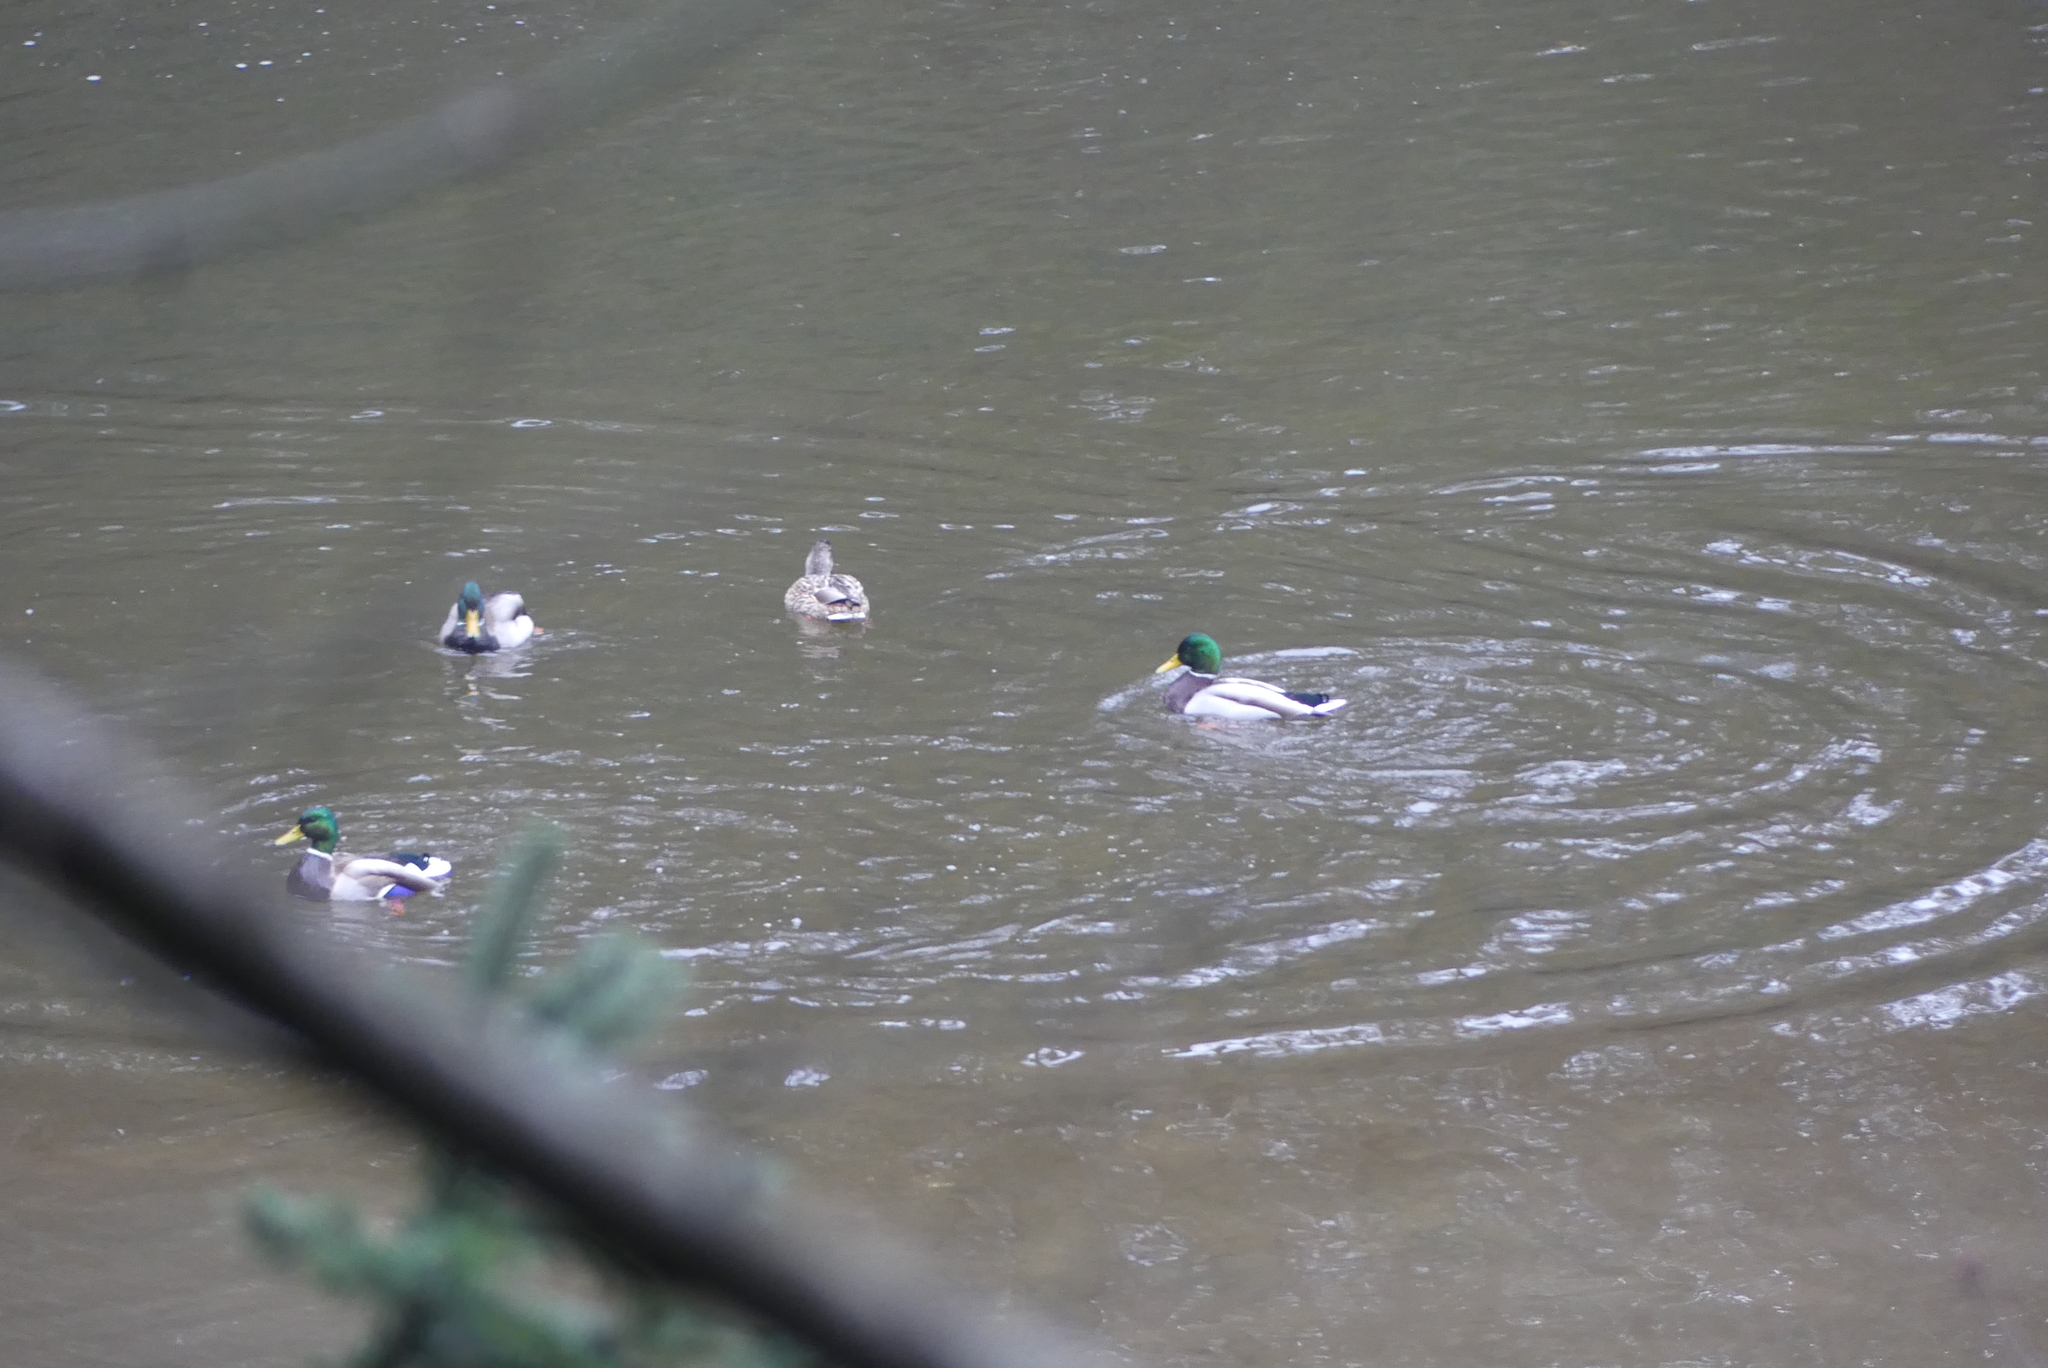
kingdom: Animalia
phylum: Chordata
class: Aves
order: Anseriformes
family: Anatidae
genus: Anas
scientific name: Anas platyrhynchos
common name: Mallard
